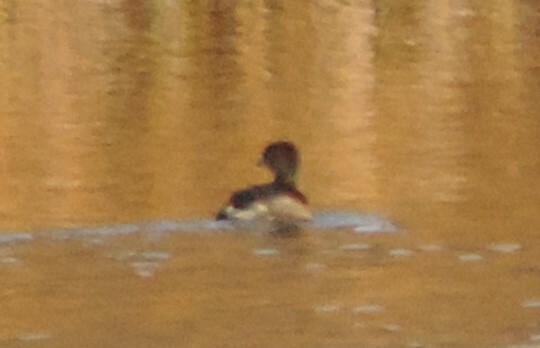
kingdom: Animalia
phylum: Chordata
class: Aves
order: Podicipediformes
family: Podicipedidae
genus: Podilymbus
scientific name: Podilymbus podiceps
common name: Pied-billed grebe
